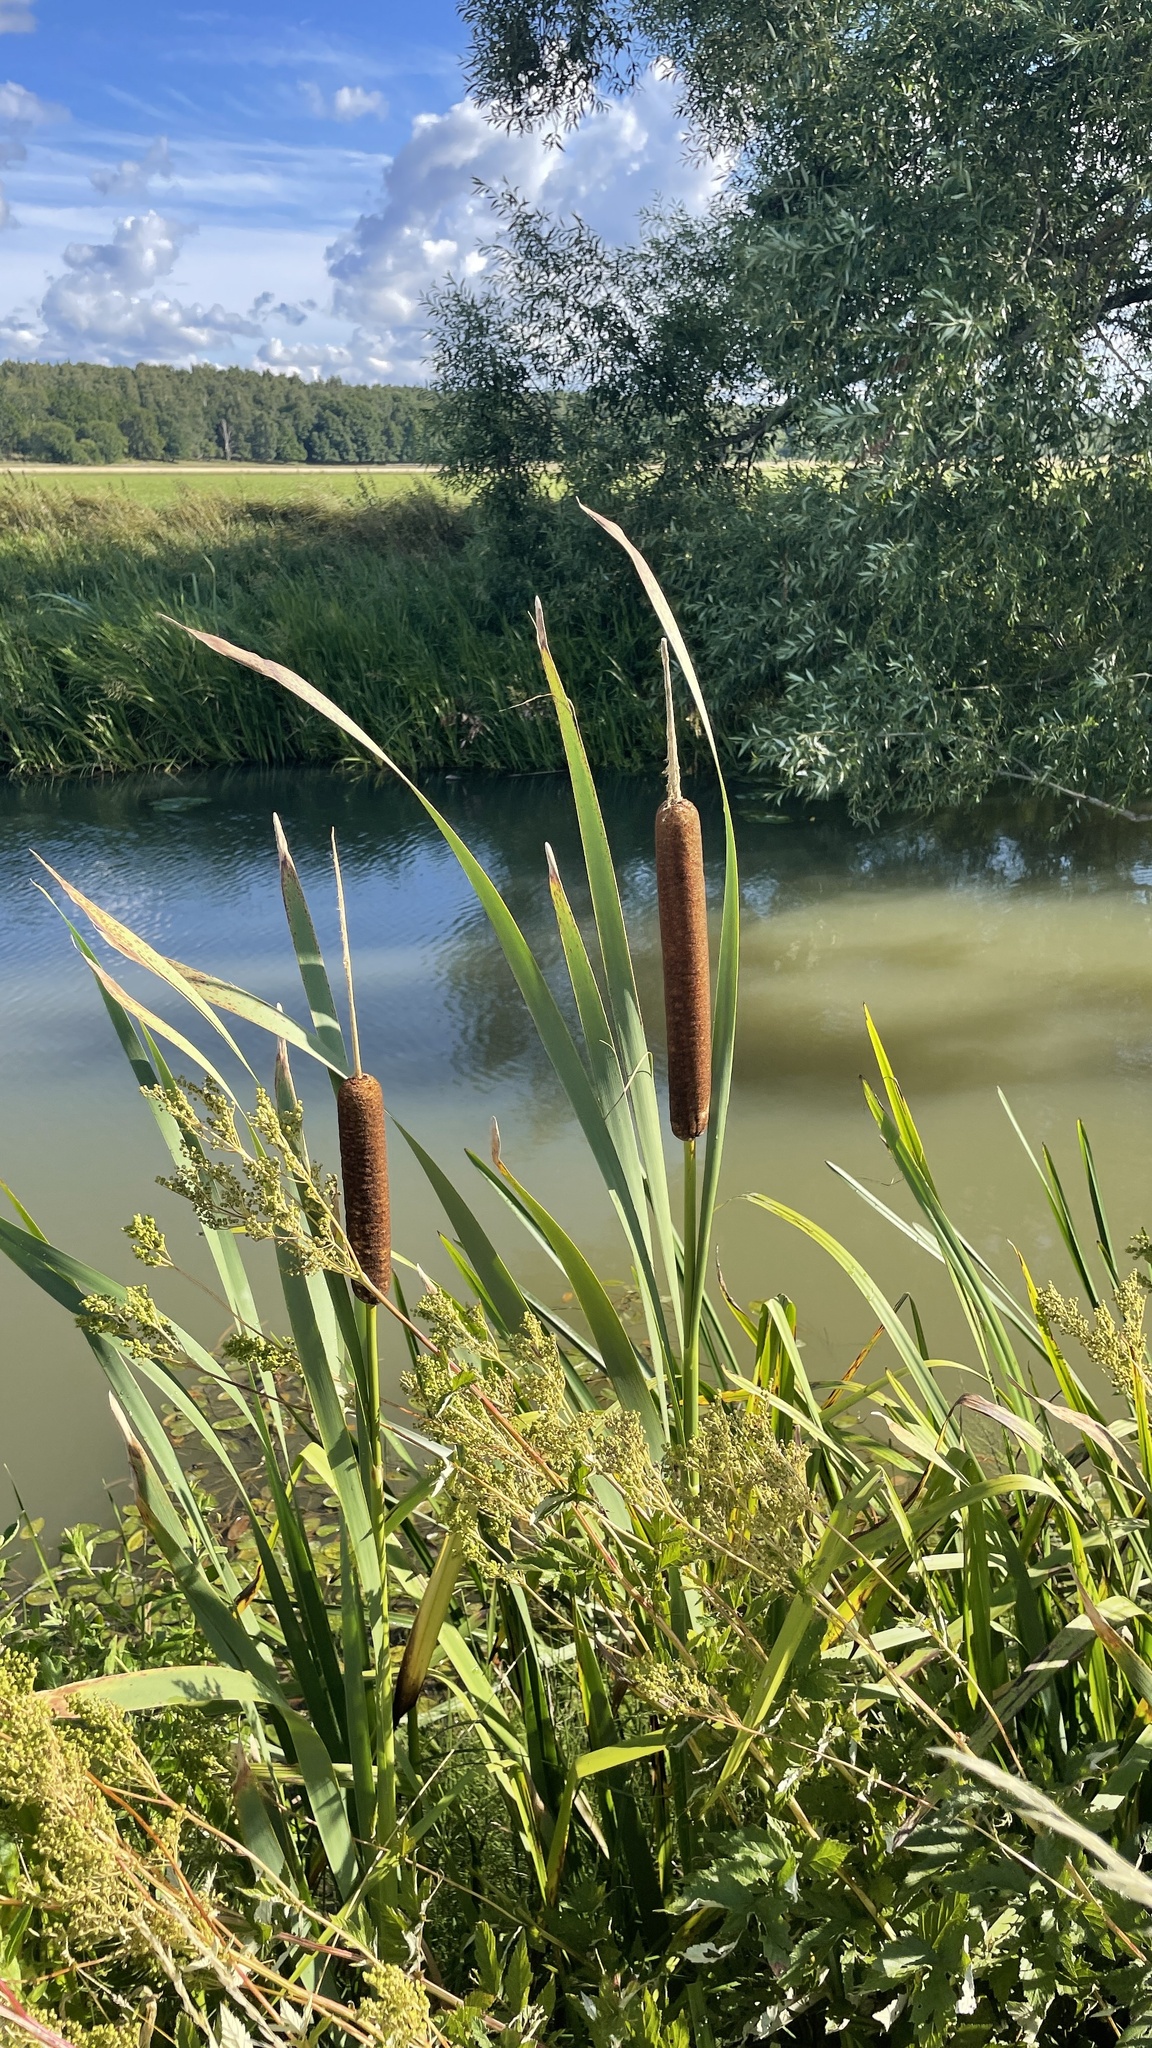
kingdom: Plantae
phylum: Tracheophyta
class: Liliopsida
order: Poales
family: Typhaceae
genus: Typha
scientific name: Typha latifolia
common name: Broadleaf cattail
